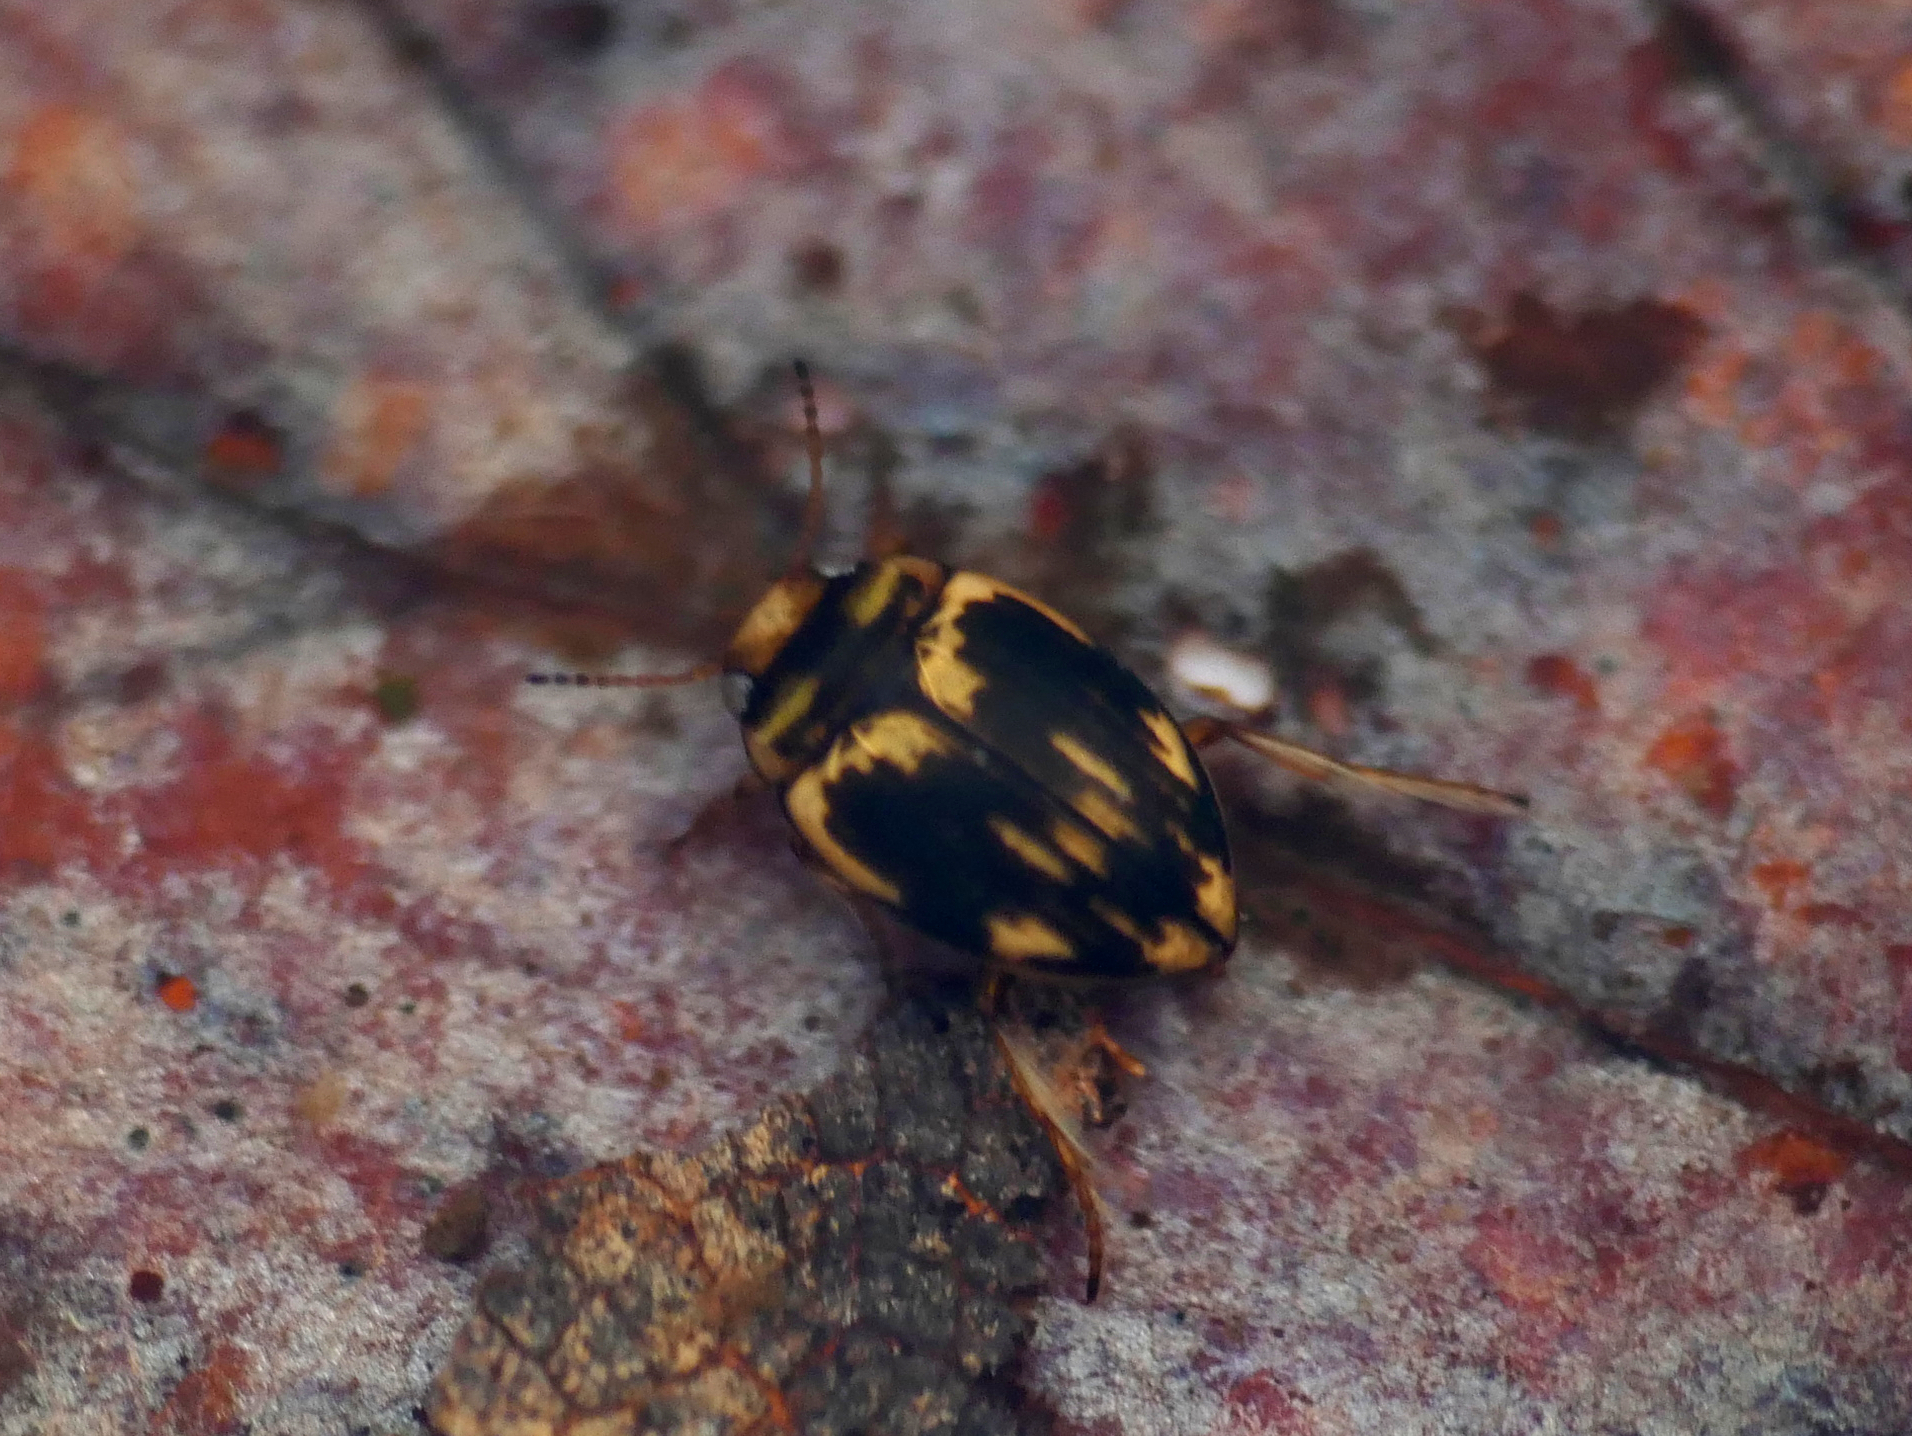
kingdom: Animalia
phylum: Arthropoda
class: Insecta
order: Coleoptera
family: Dytiscidae
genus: Nectoporus
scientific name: Nectoporus sanmarkii
